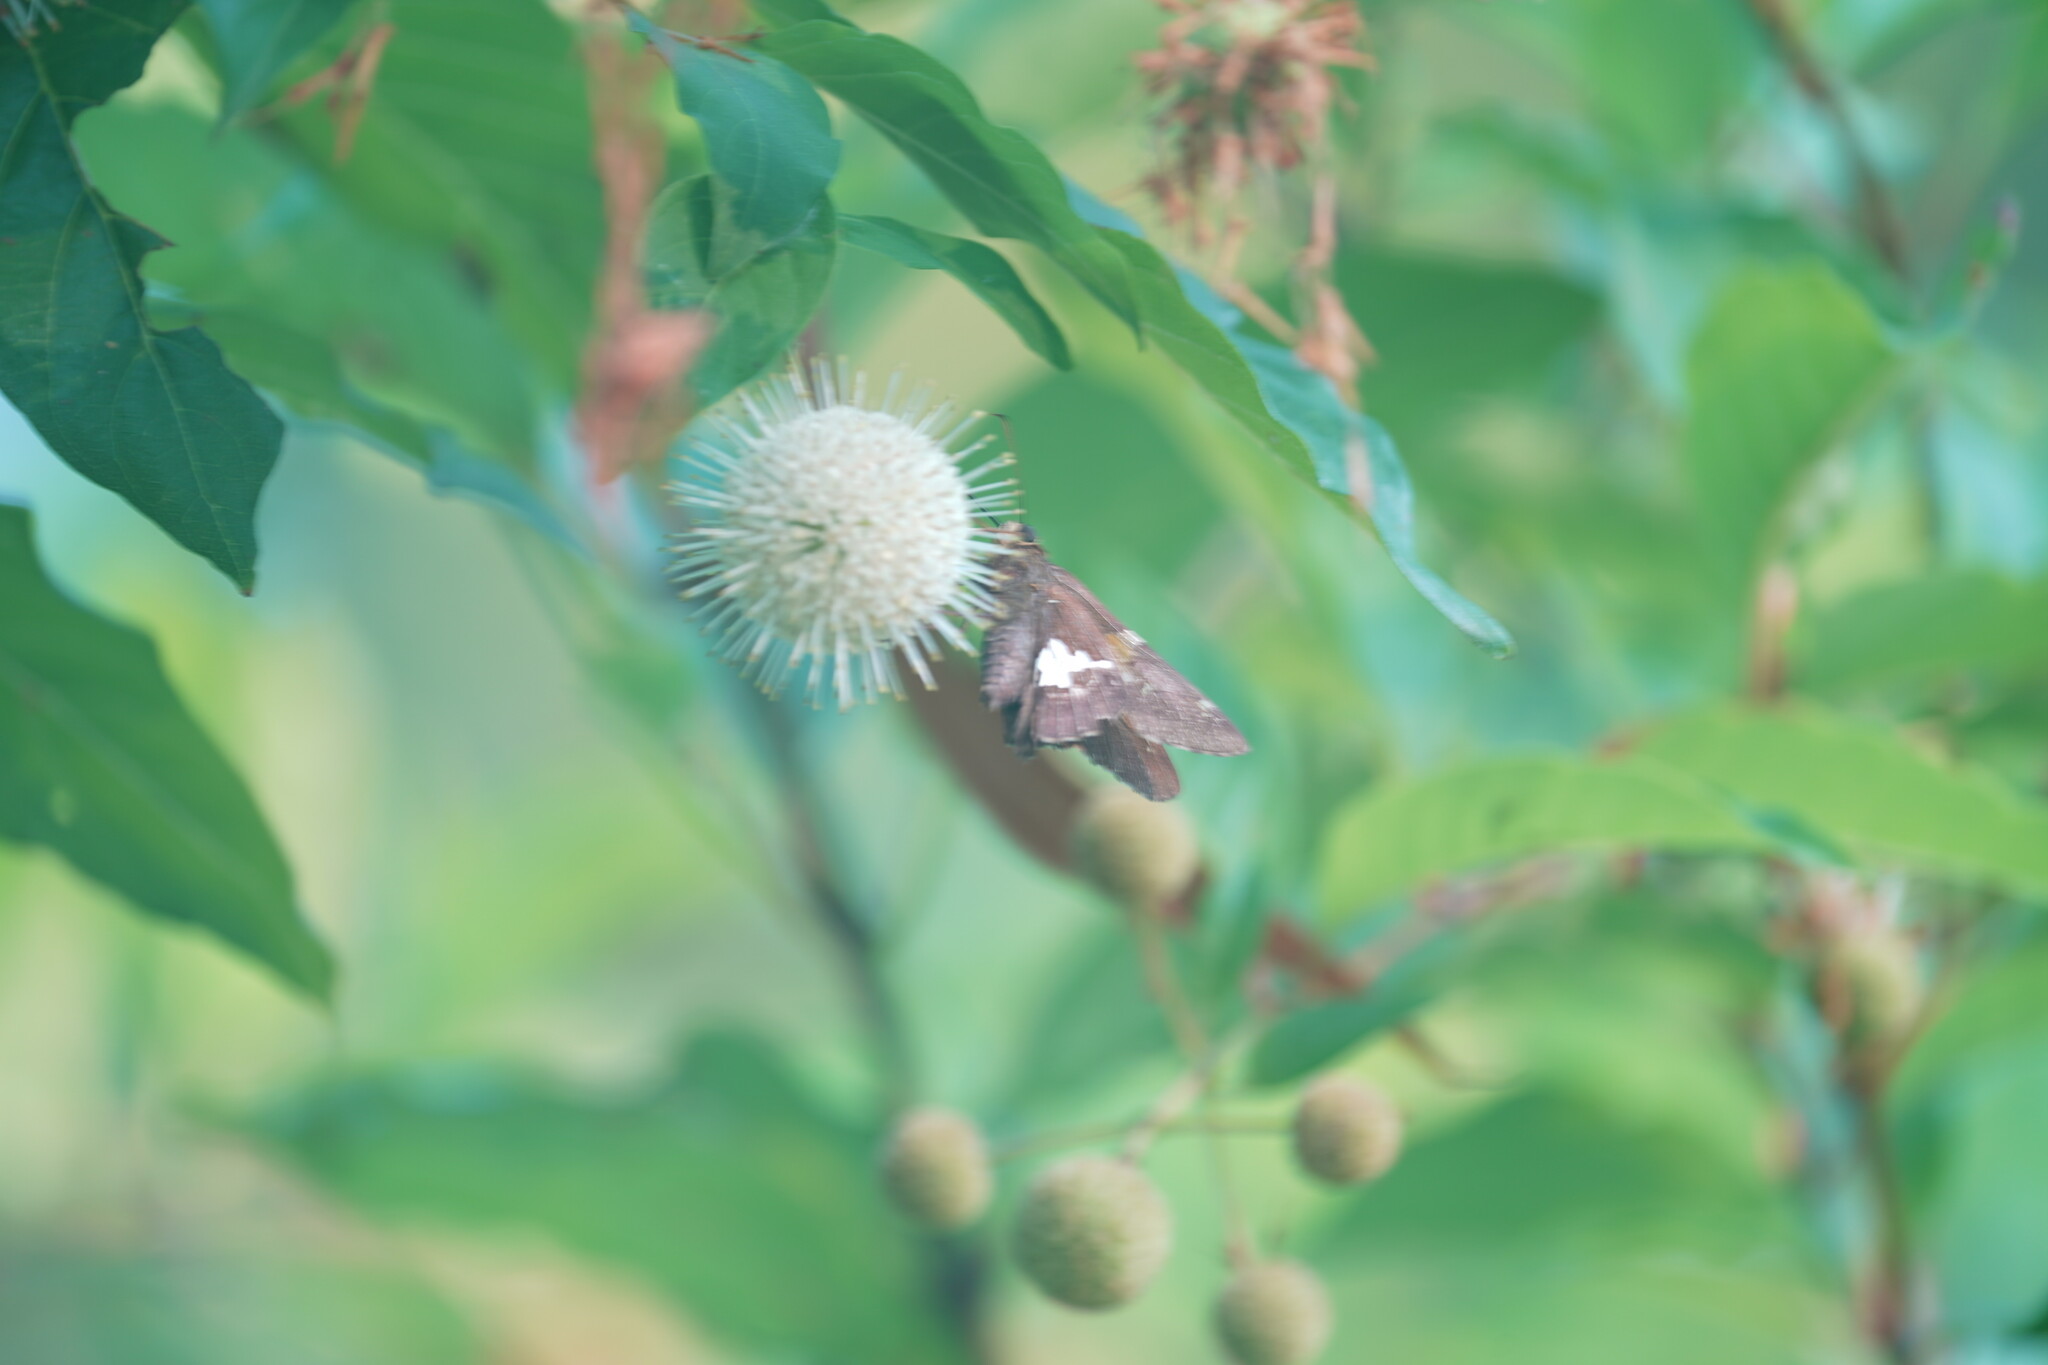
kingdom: Animalia
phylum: Arthropoda
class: Insecta
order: Lepidoptera
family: Hesperiidae
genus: Epargyreus
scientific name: Epargyreus clarus
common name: Silver-spotted skipper
